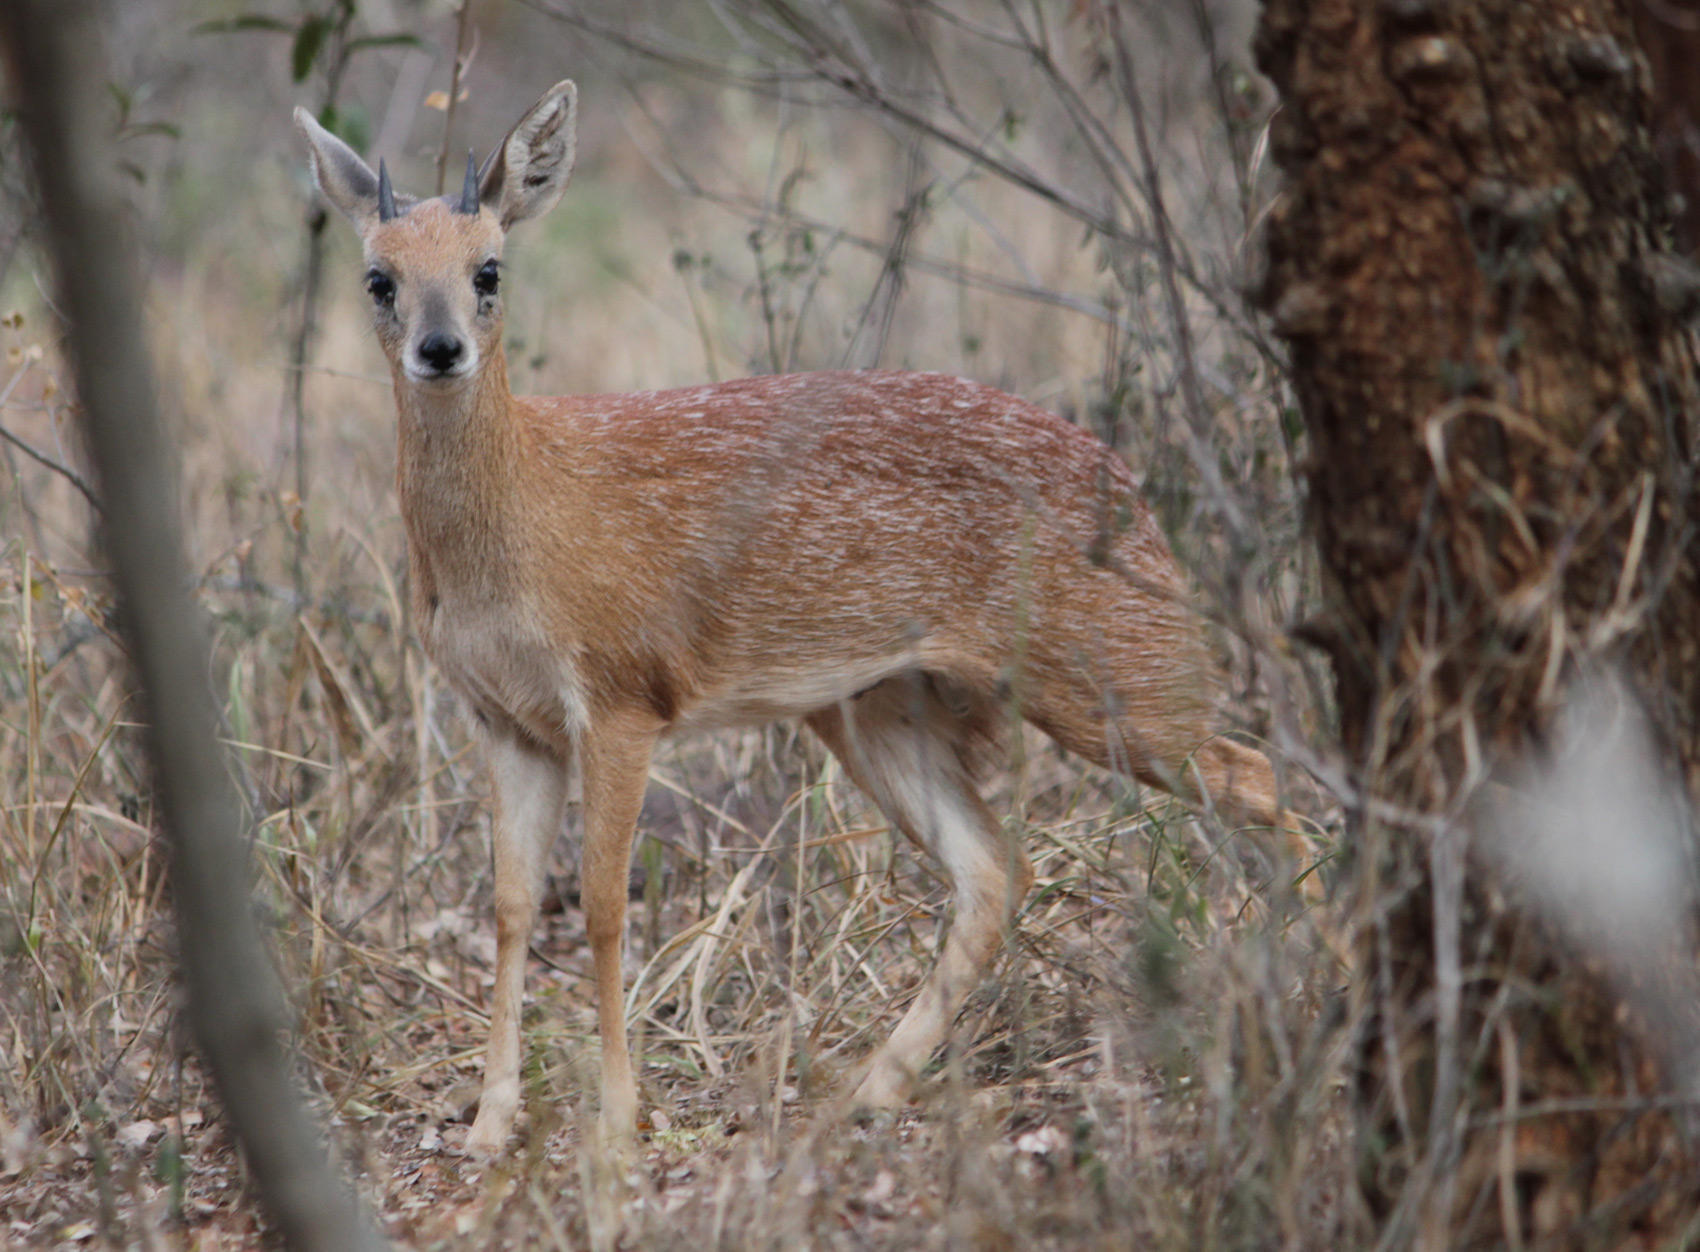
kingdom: Animalia
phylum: Chordata
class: Mammalia
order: Artiodactyla
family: Bovidae
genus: Raphicerus
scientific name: Raphicerus sharpei
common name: Sharpe's grysbok
